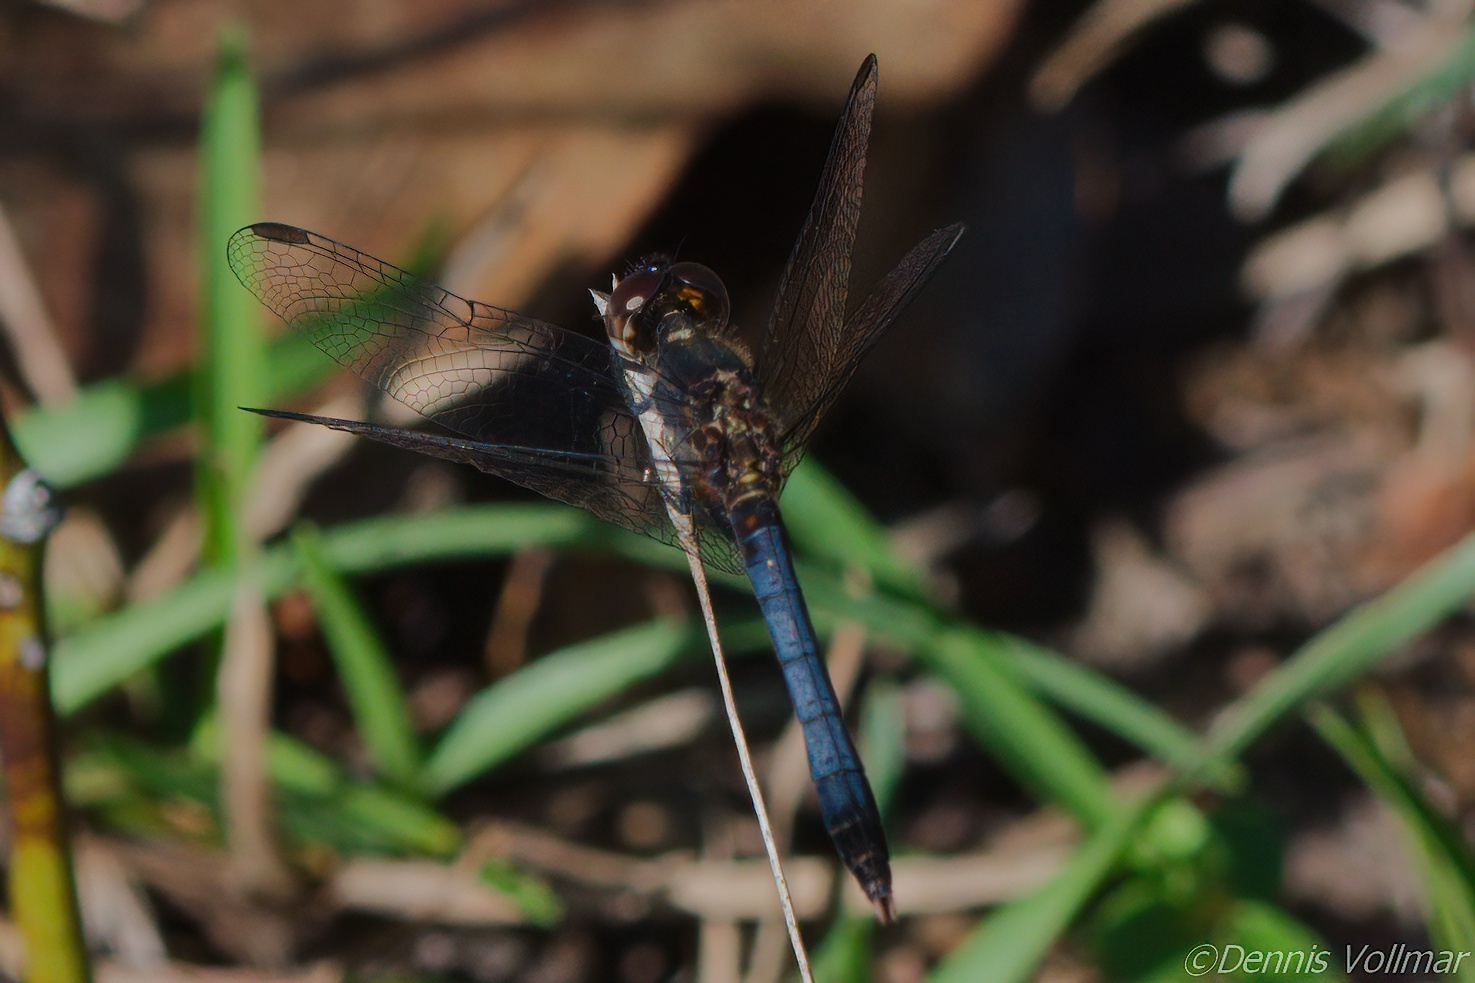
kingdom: Animalia
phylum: Arthropoda
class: Insecta
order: Odonata
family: Libellulidae
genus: Erythrodiplax
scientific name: Erythrodiplax minuscula
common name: Little blue dragonlet
